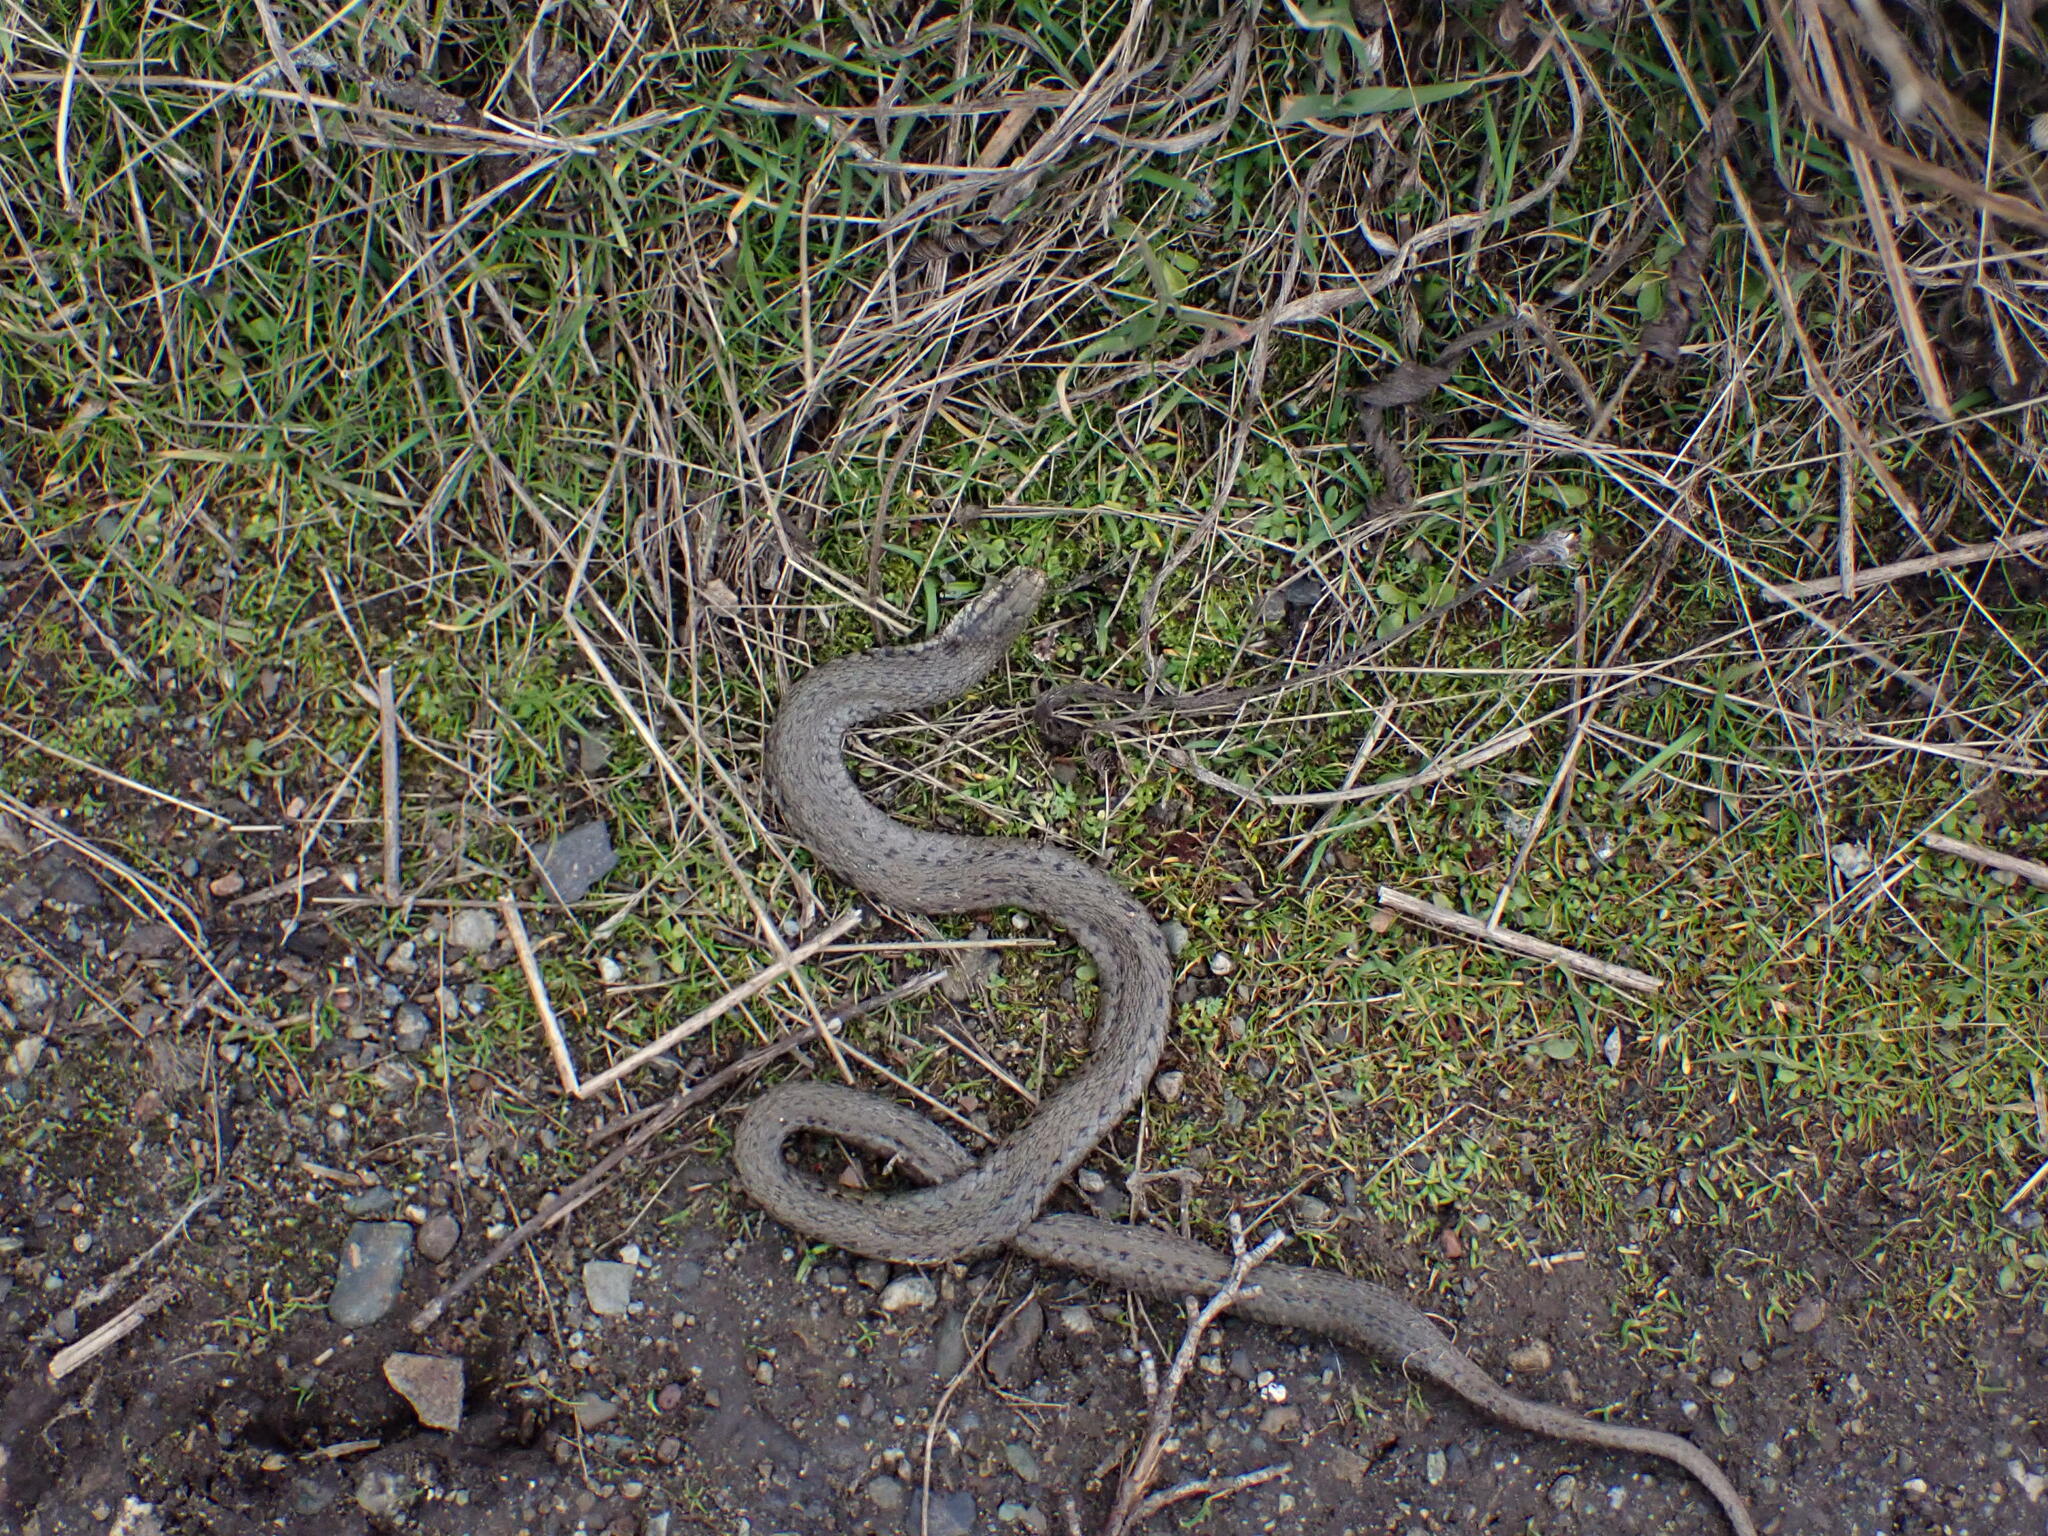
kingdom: Animalia
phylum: Chordata
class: Squamata
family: Colubridae
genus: Thamnophis
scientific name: Thamnophis ordinoides
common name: Northwestern garter snake
